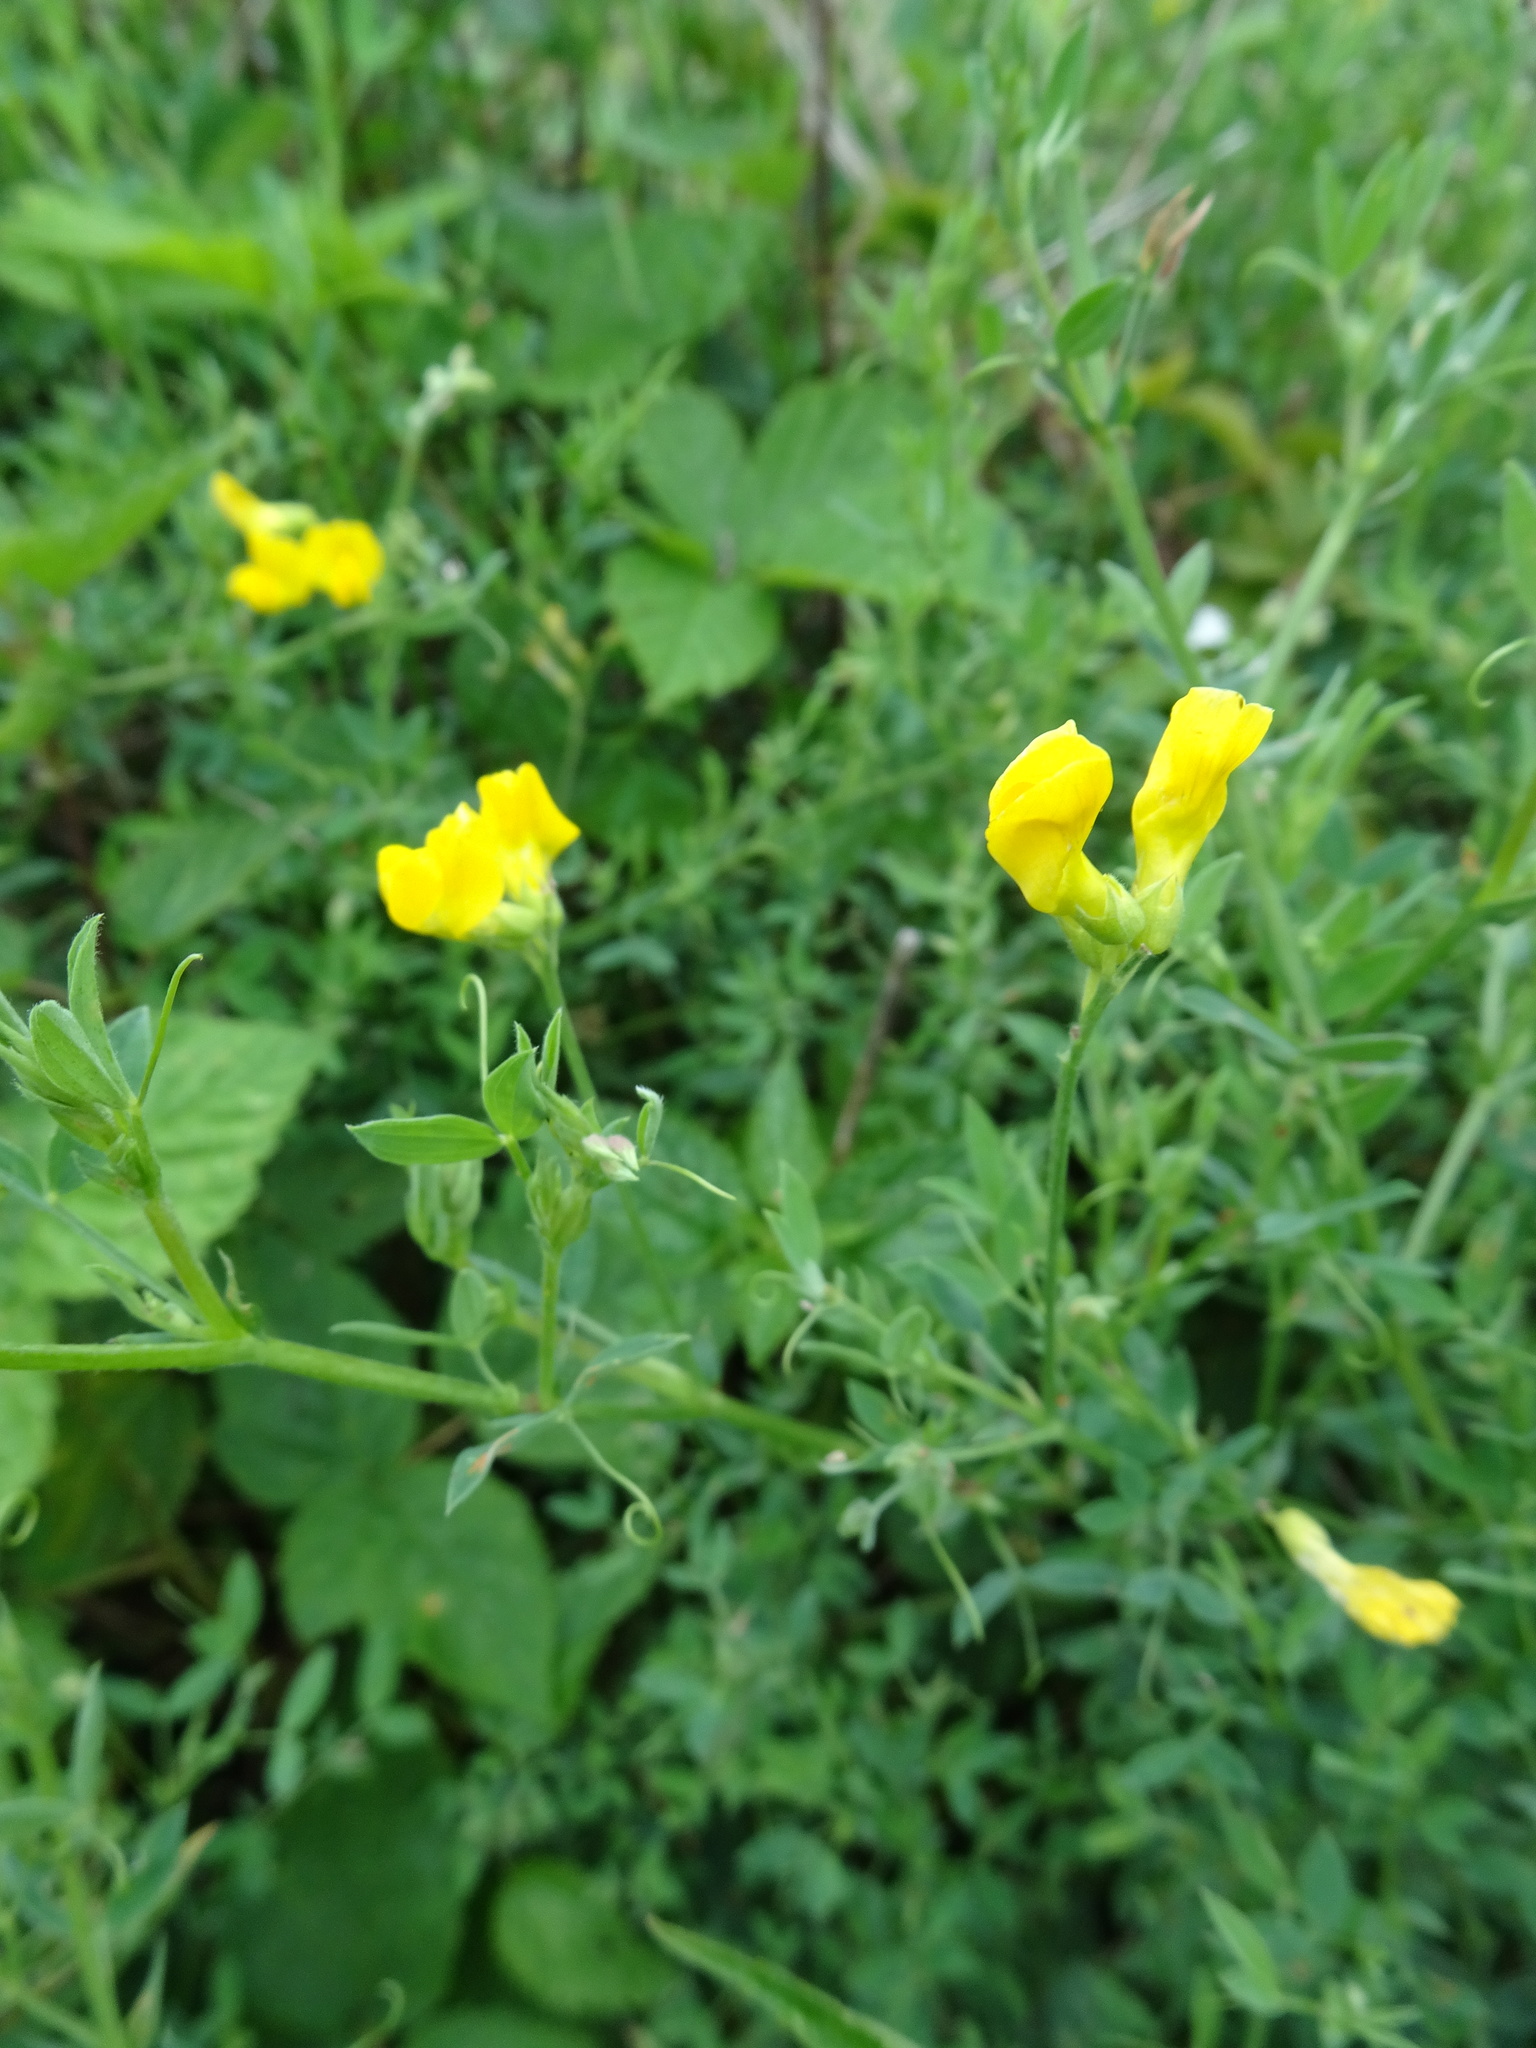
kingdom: Plantae
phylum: Tracheophyta
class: Magnoliopsida
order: Fabales
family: Fabaceae
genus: Lathyrus
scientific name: Lathyrus pratensis
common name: Meadow vetchling
